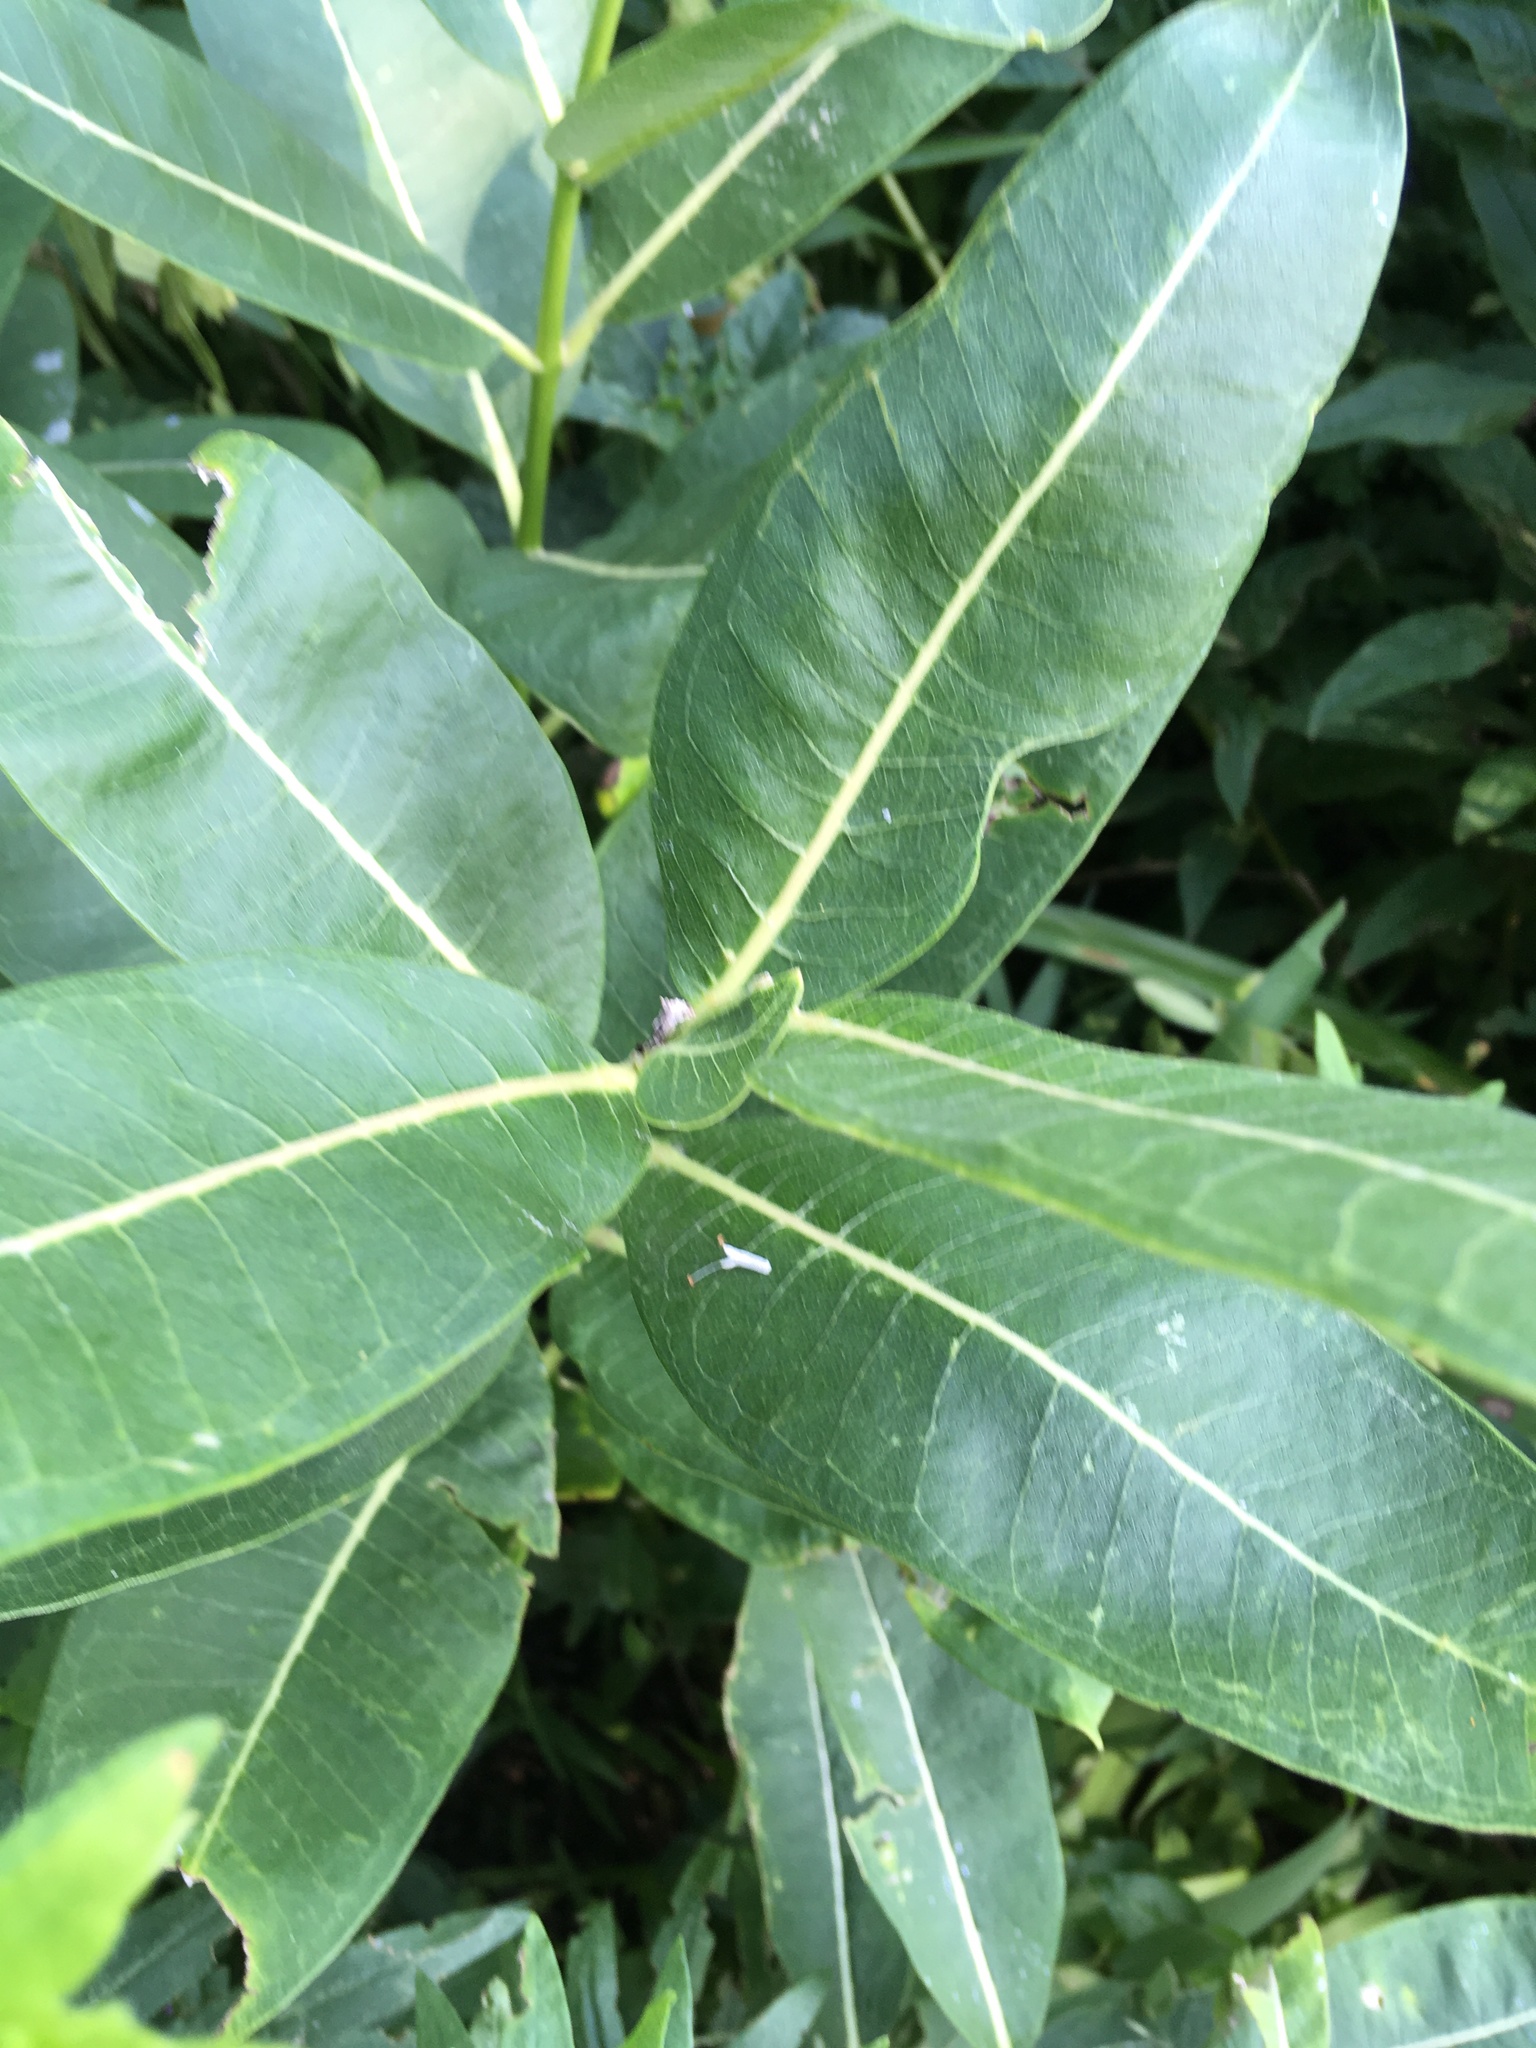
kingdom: Plantae
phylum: Tracheophyta
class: Magnoliopsida
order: Gentianales
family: Apocynaceae
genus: Asclepias
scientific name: Asclepias syriaca
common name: Common milkweed
